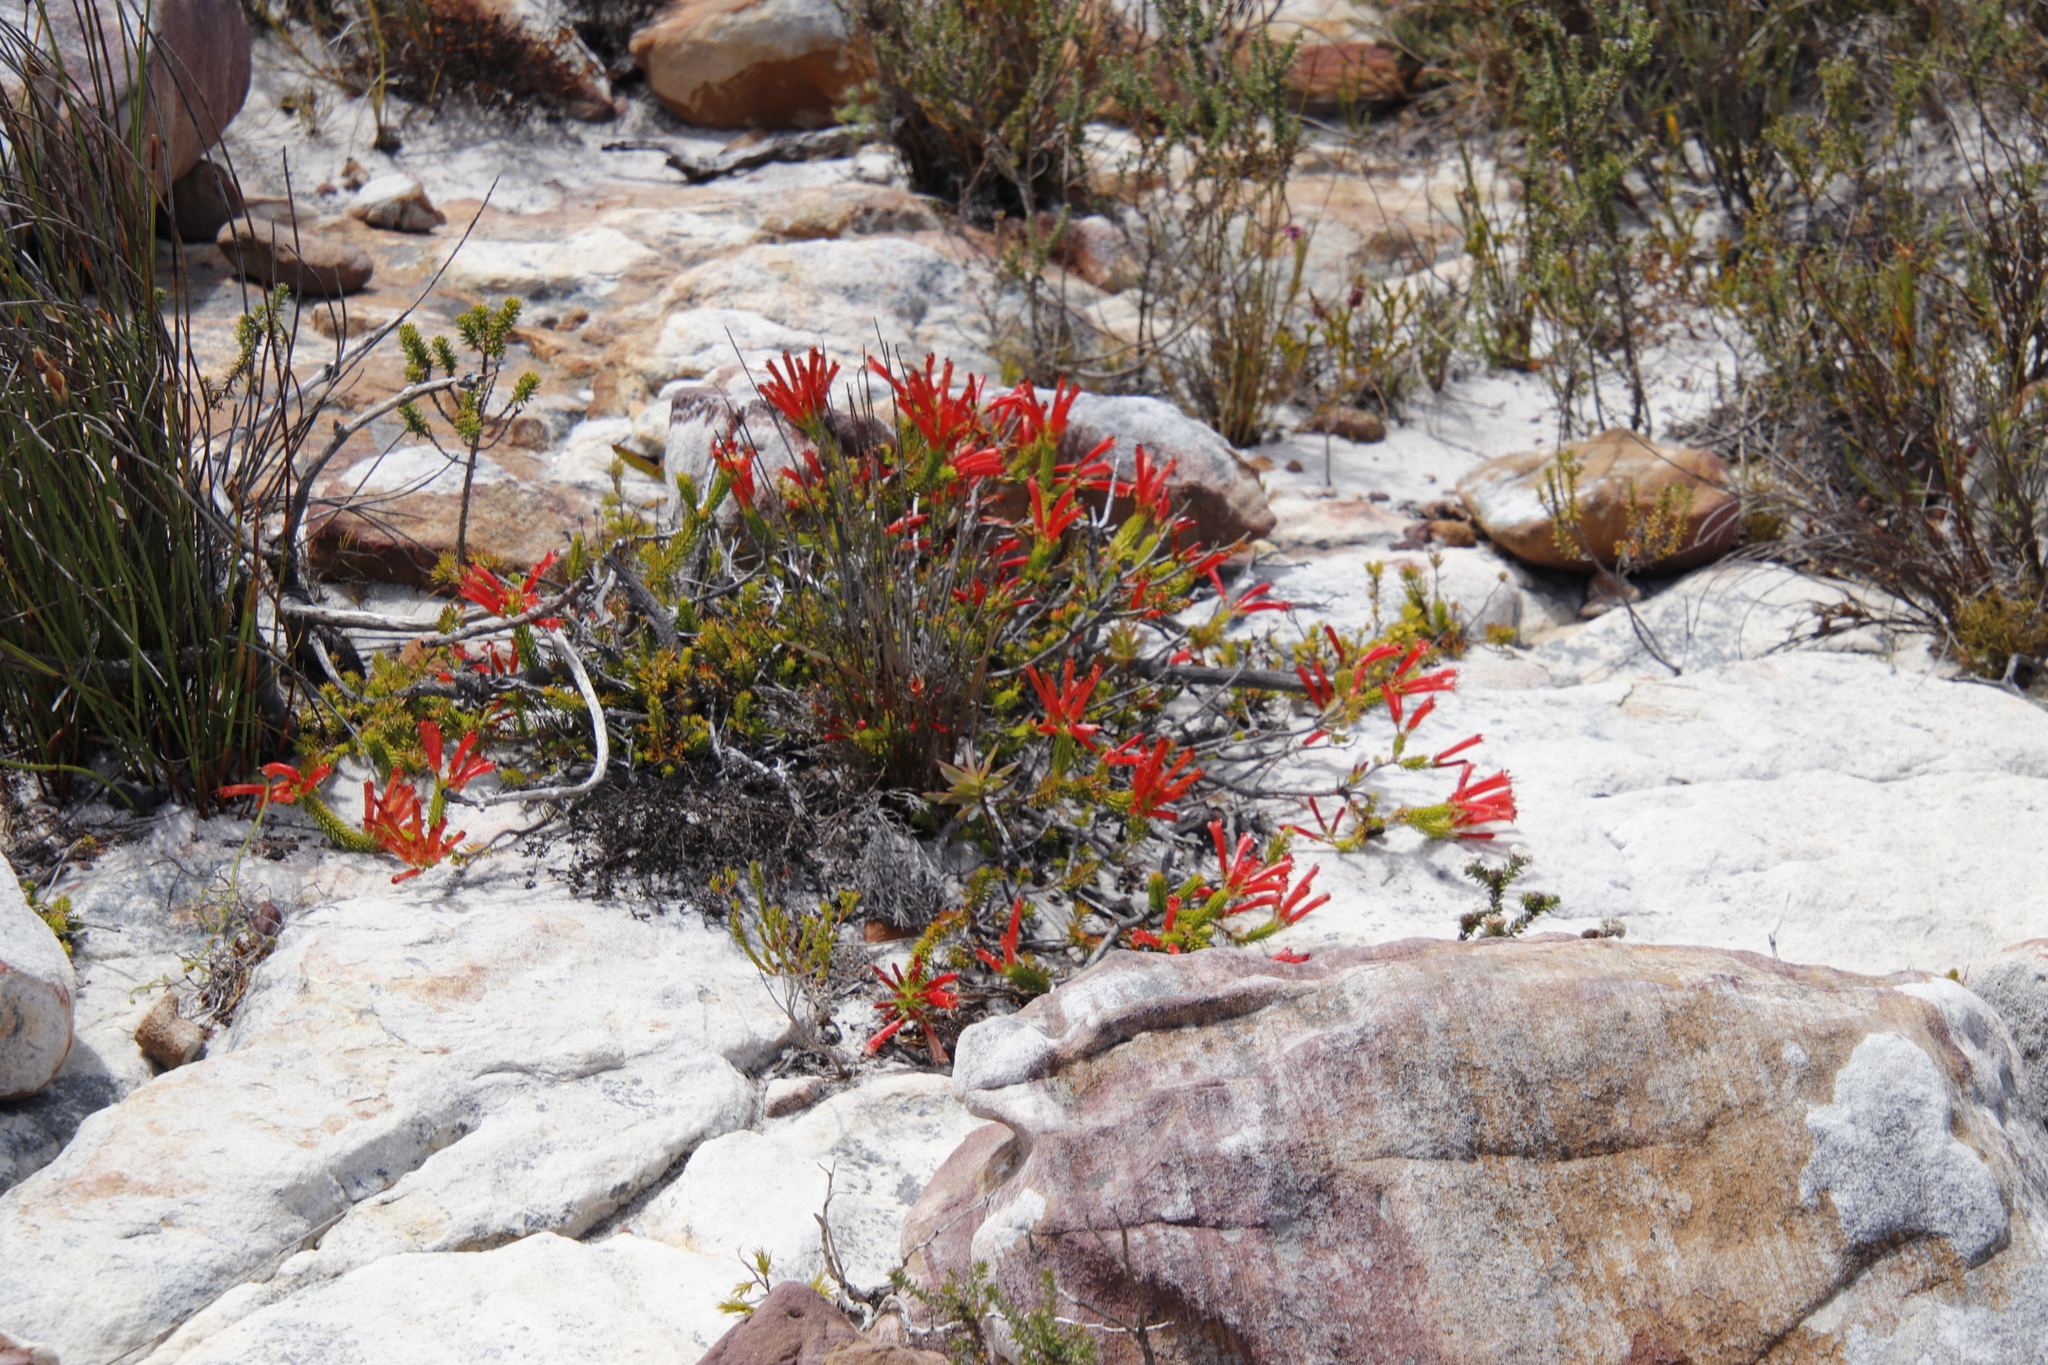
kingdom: Plantae
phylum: Tracheophyta
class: Magnoliopsida
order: Ericales
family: Ericaceae
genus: Erica
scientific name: Erica nevillei
